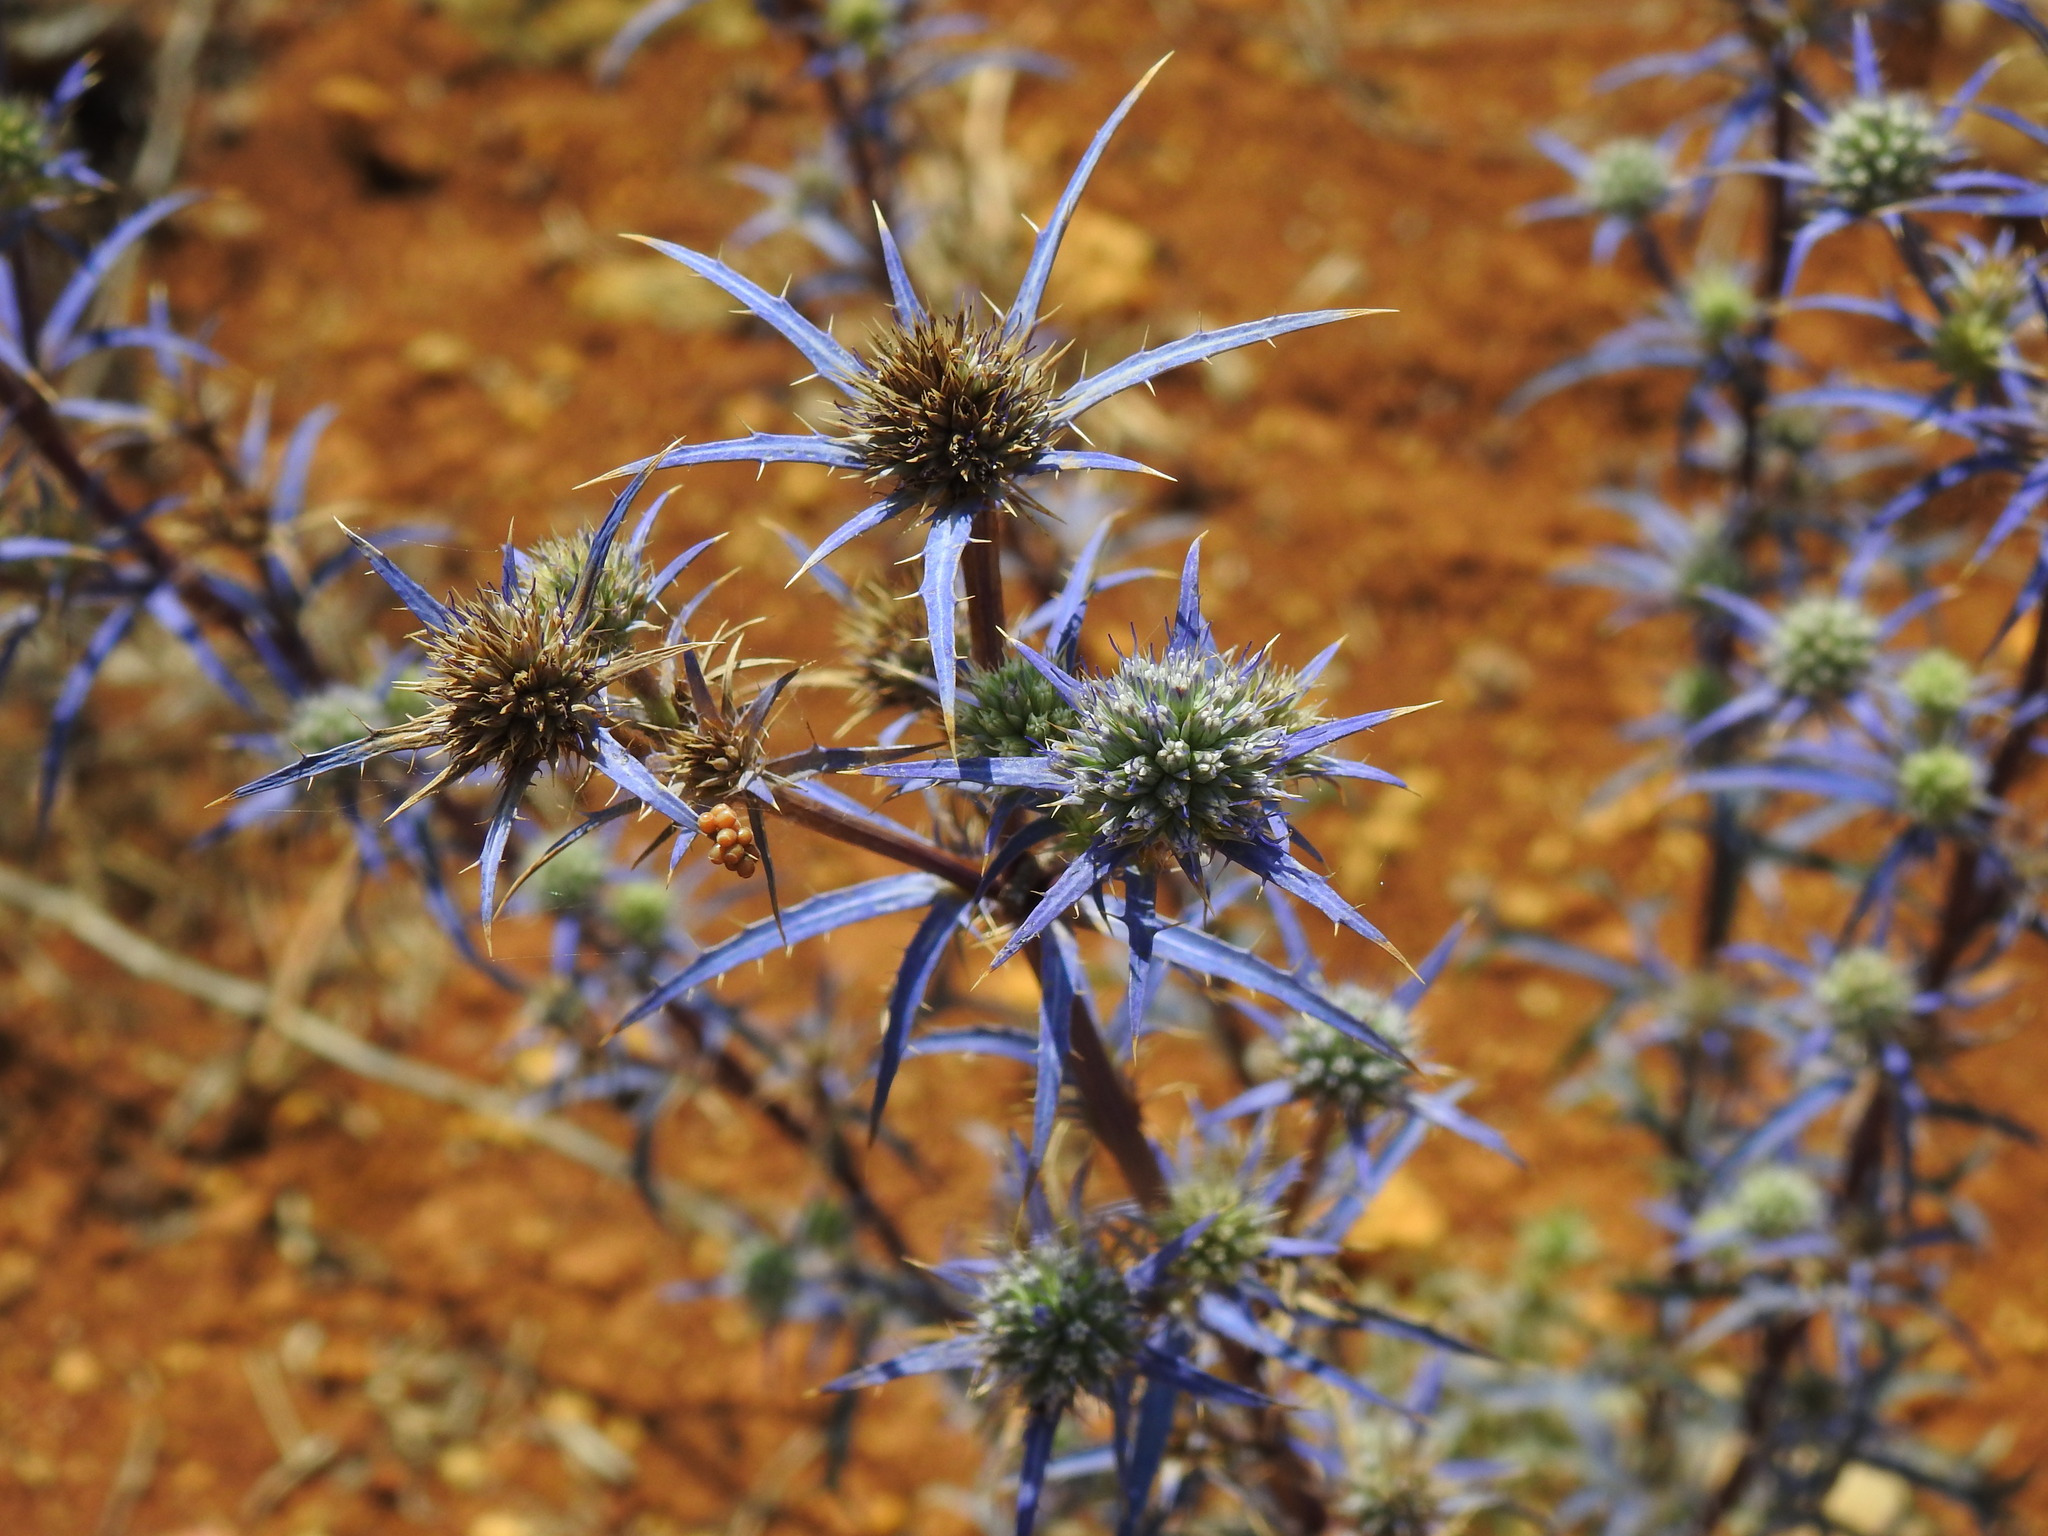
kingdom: Plantae
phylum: Tracheophyta
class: Magnoliopsida
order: Apiales
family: Apiaceae
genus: Eryngium
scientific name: Eryngium dilatatum
